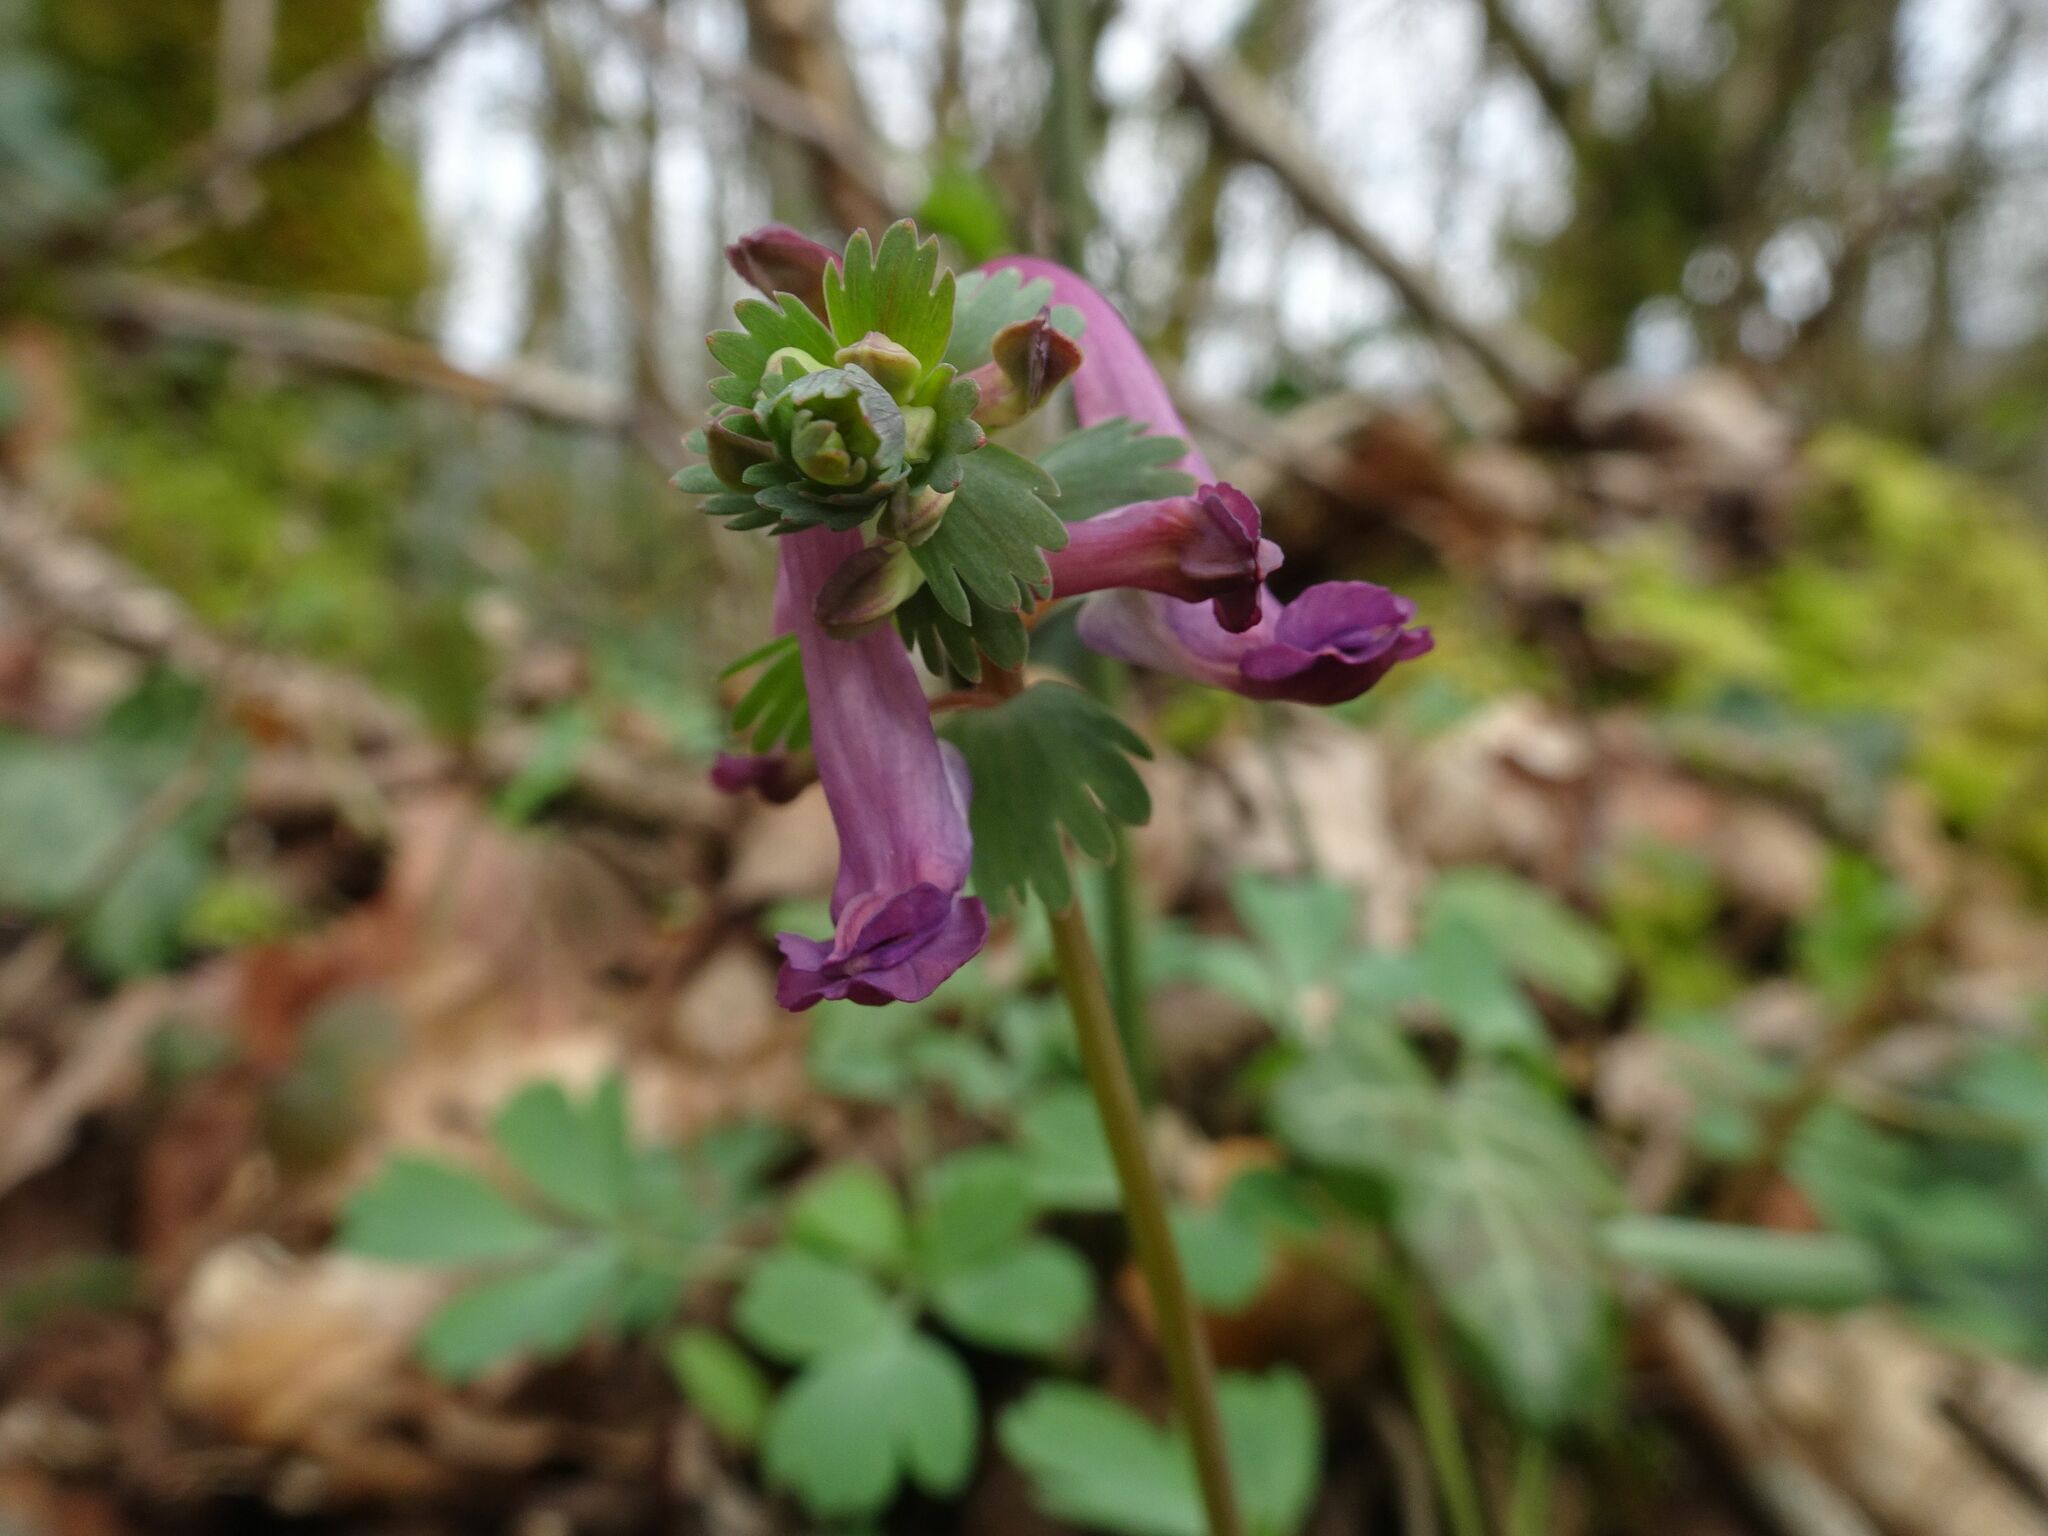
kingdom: Plantae
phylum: Tracheophyta
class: Magnoliopsida
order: Ranunculales
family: Papaveraceae
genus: Corydalis
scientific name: Corydalis solida
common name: Bird-in-a-bush
